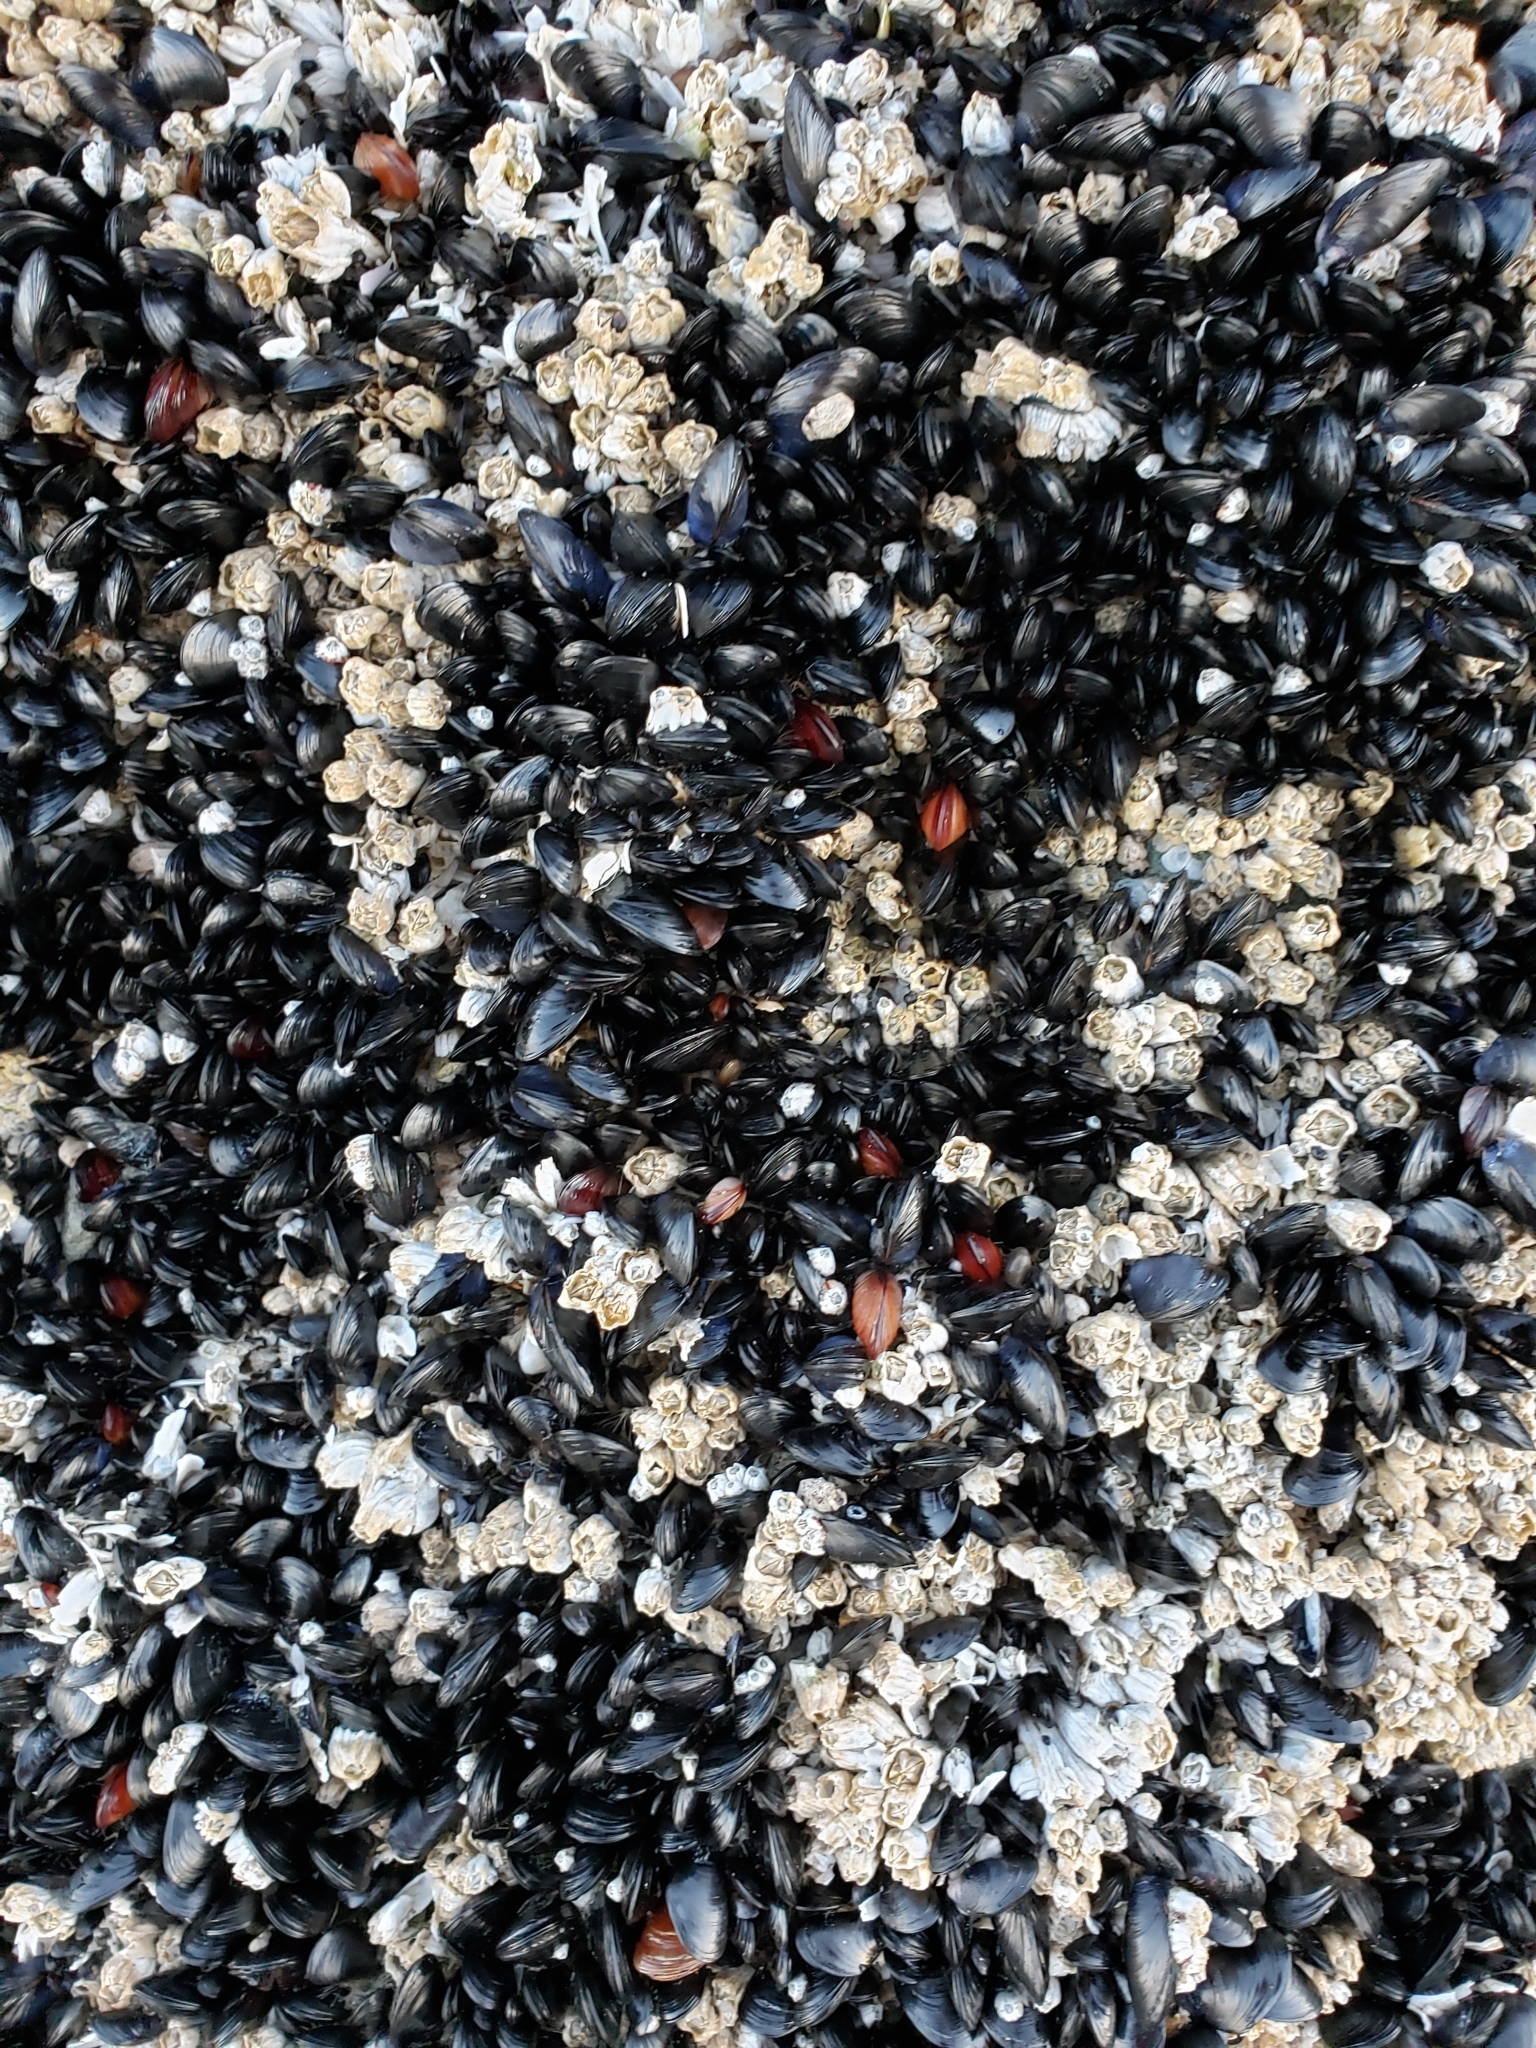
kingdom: Animalia
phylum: Mollusca
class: Bivalvia
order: Mytilida
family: Mytilidae
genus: Mytilus
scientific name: Mytilus trossulus
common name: Northern blue mussel
